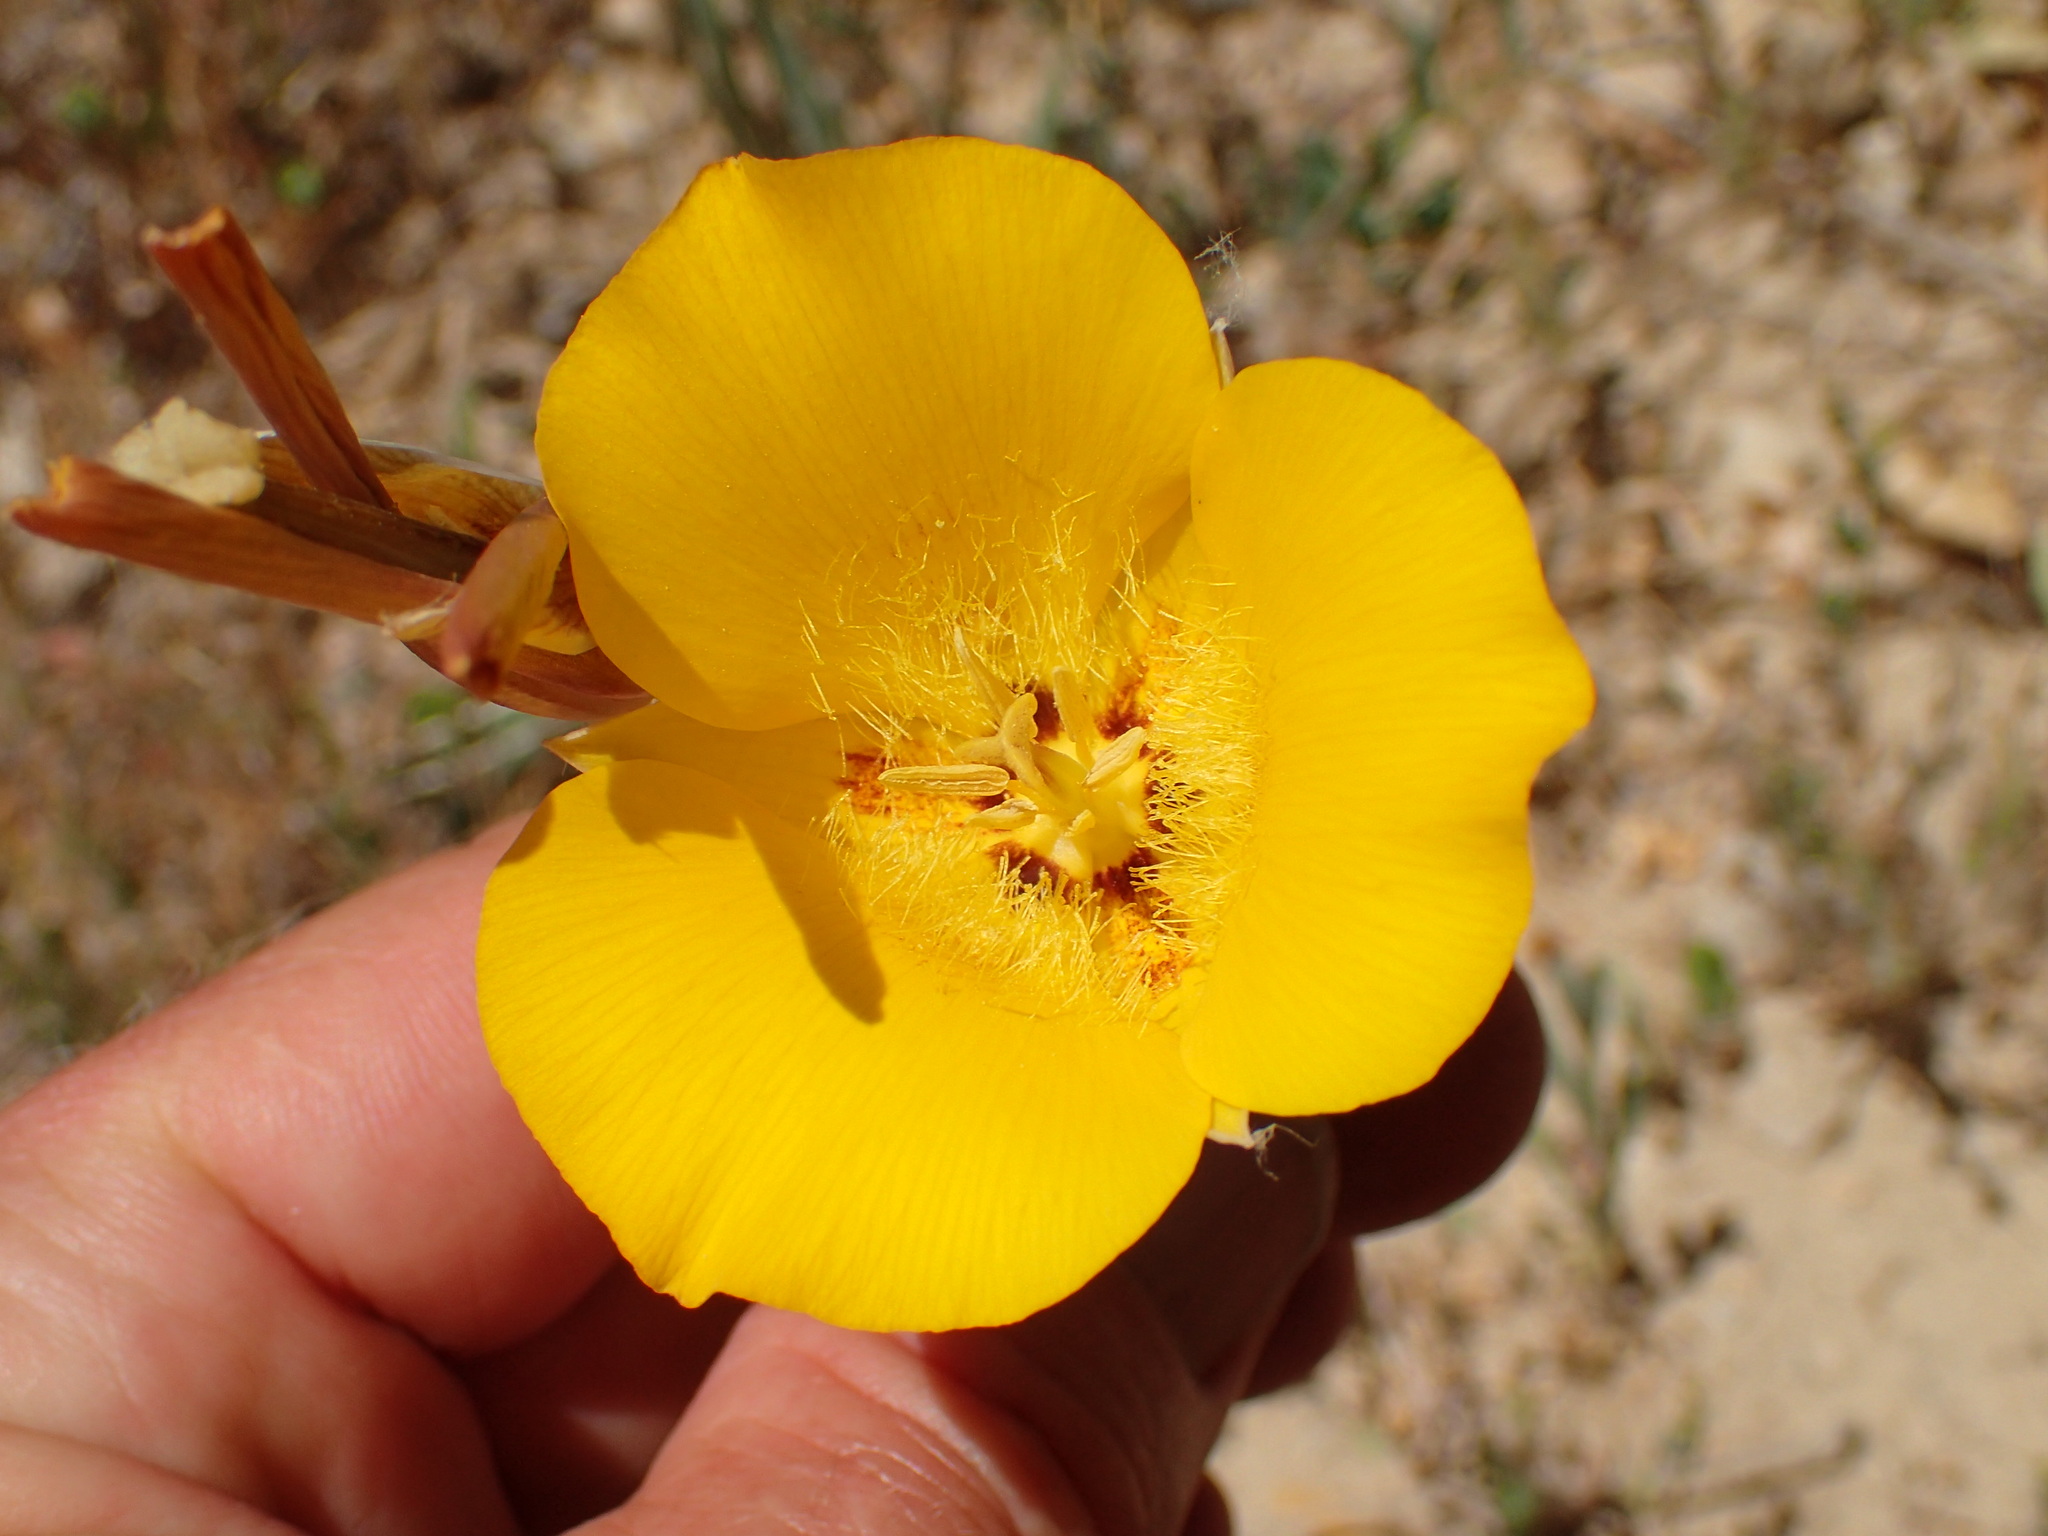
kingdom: Plantae
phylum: Tracheophyta
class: Liliopsida
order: Liliales
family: Liliaceae
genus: Calochortus
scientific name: Calochortus clavatus
